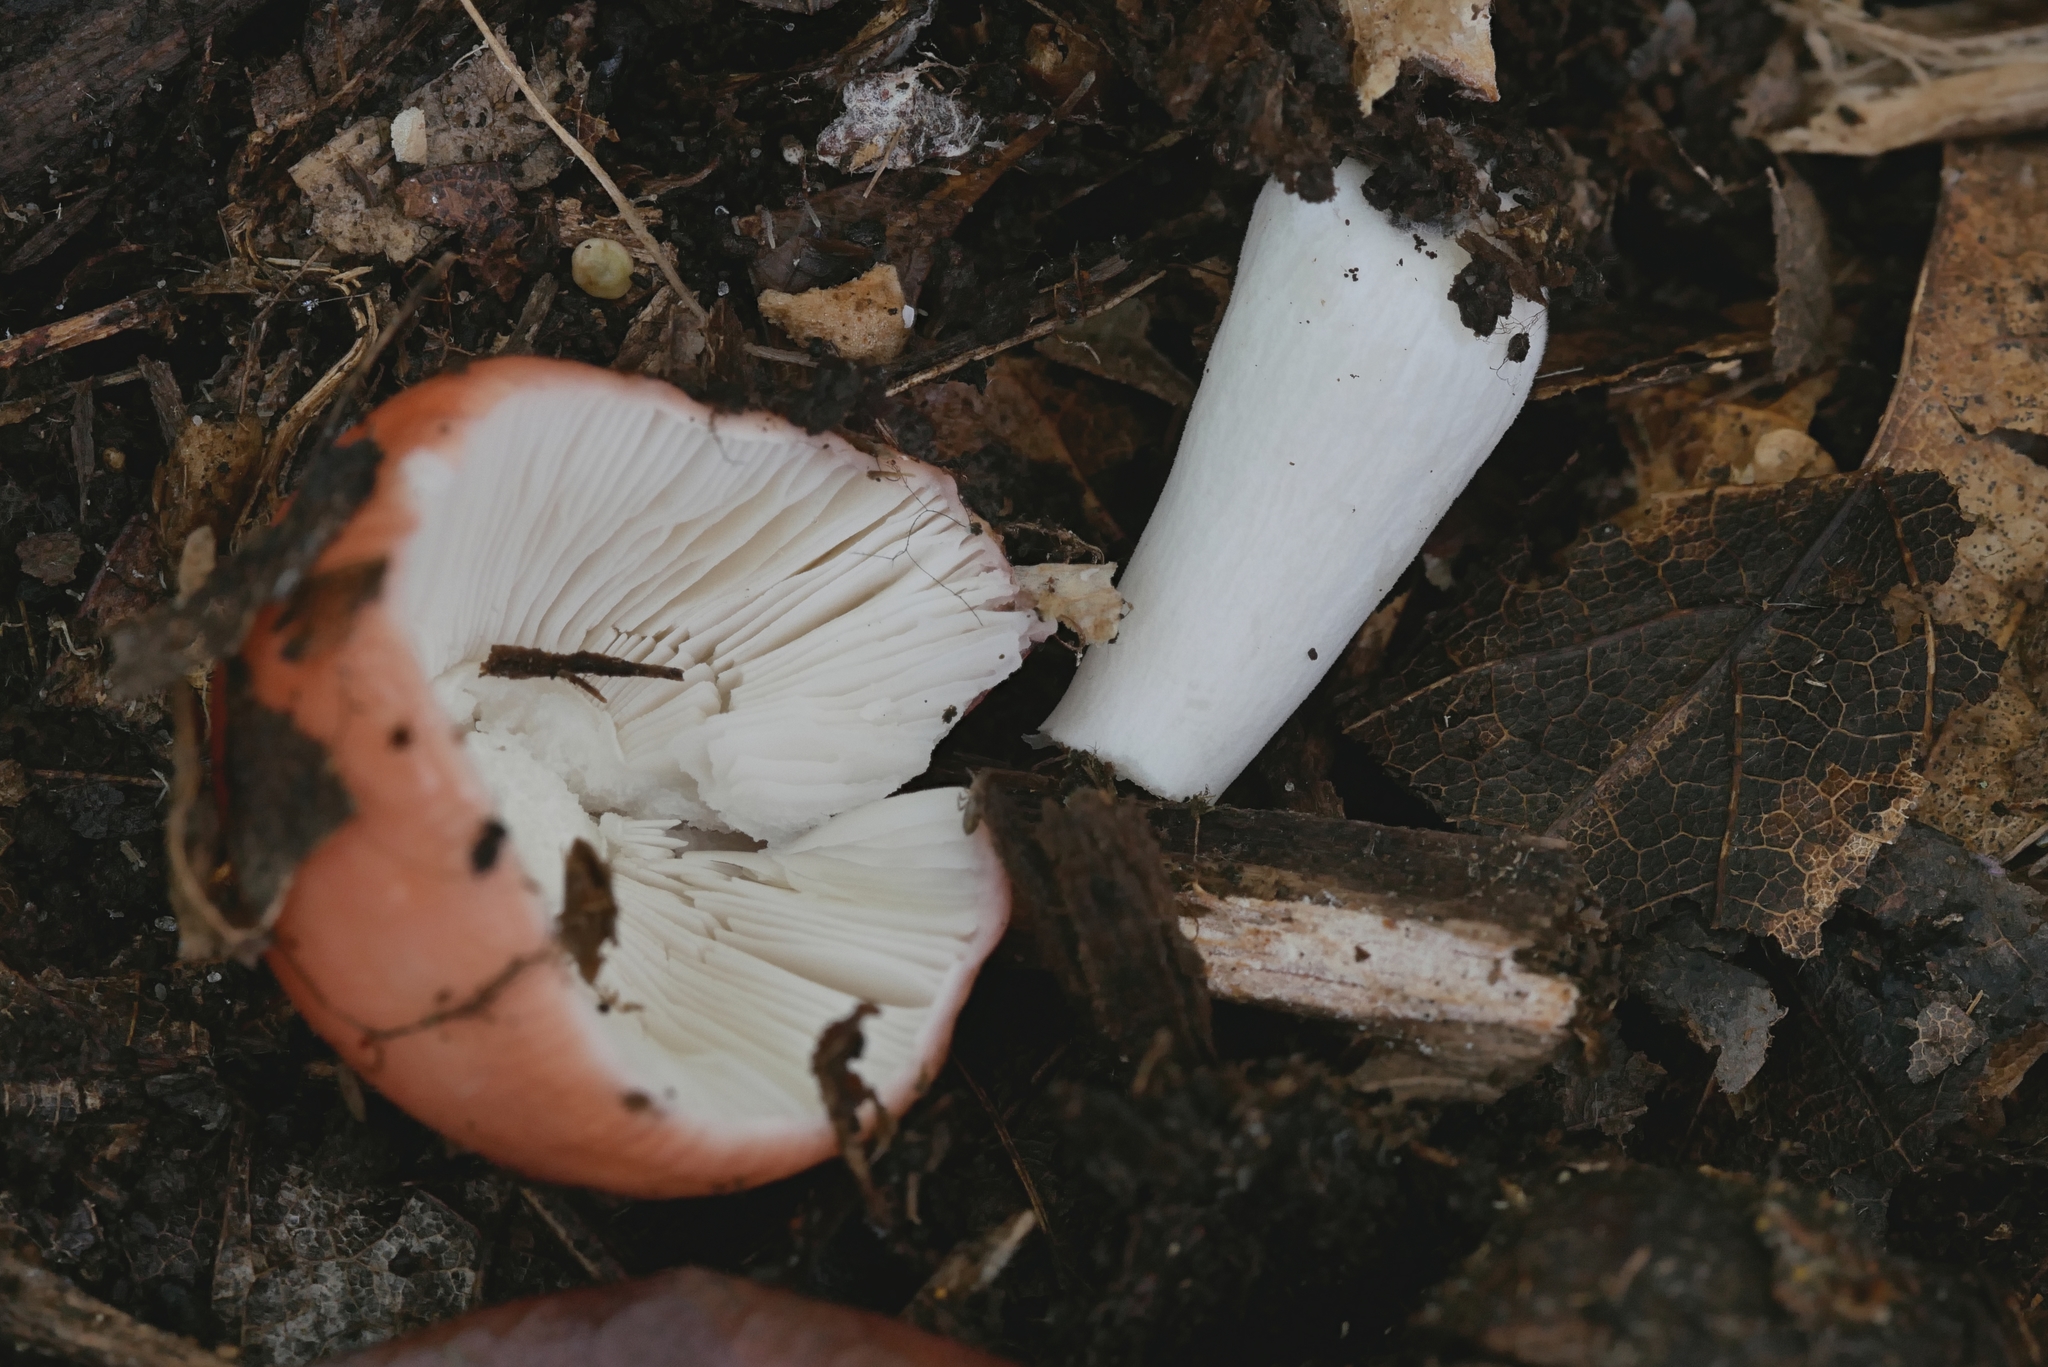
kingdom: Fungi
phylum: Basidiomycota
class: Agaricomycetes
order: Russulales
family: Russulaceae
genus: Russula
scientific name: Russula subemetica
